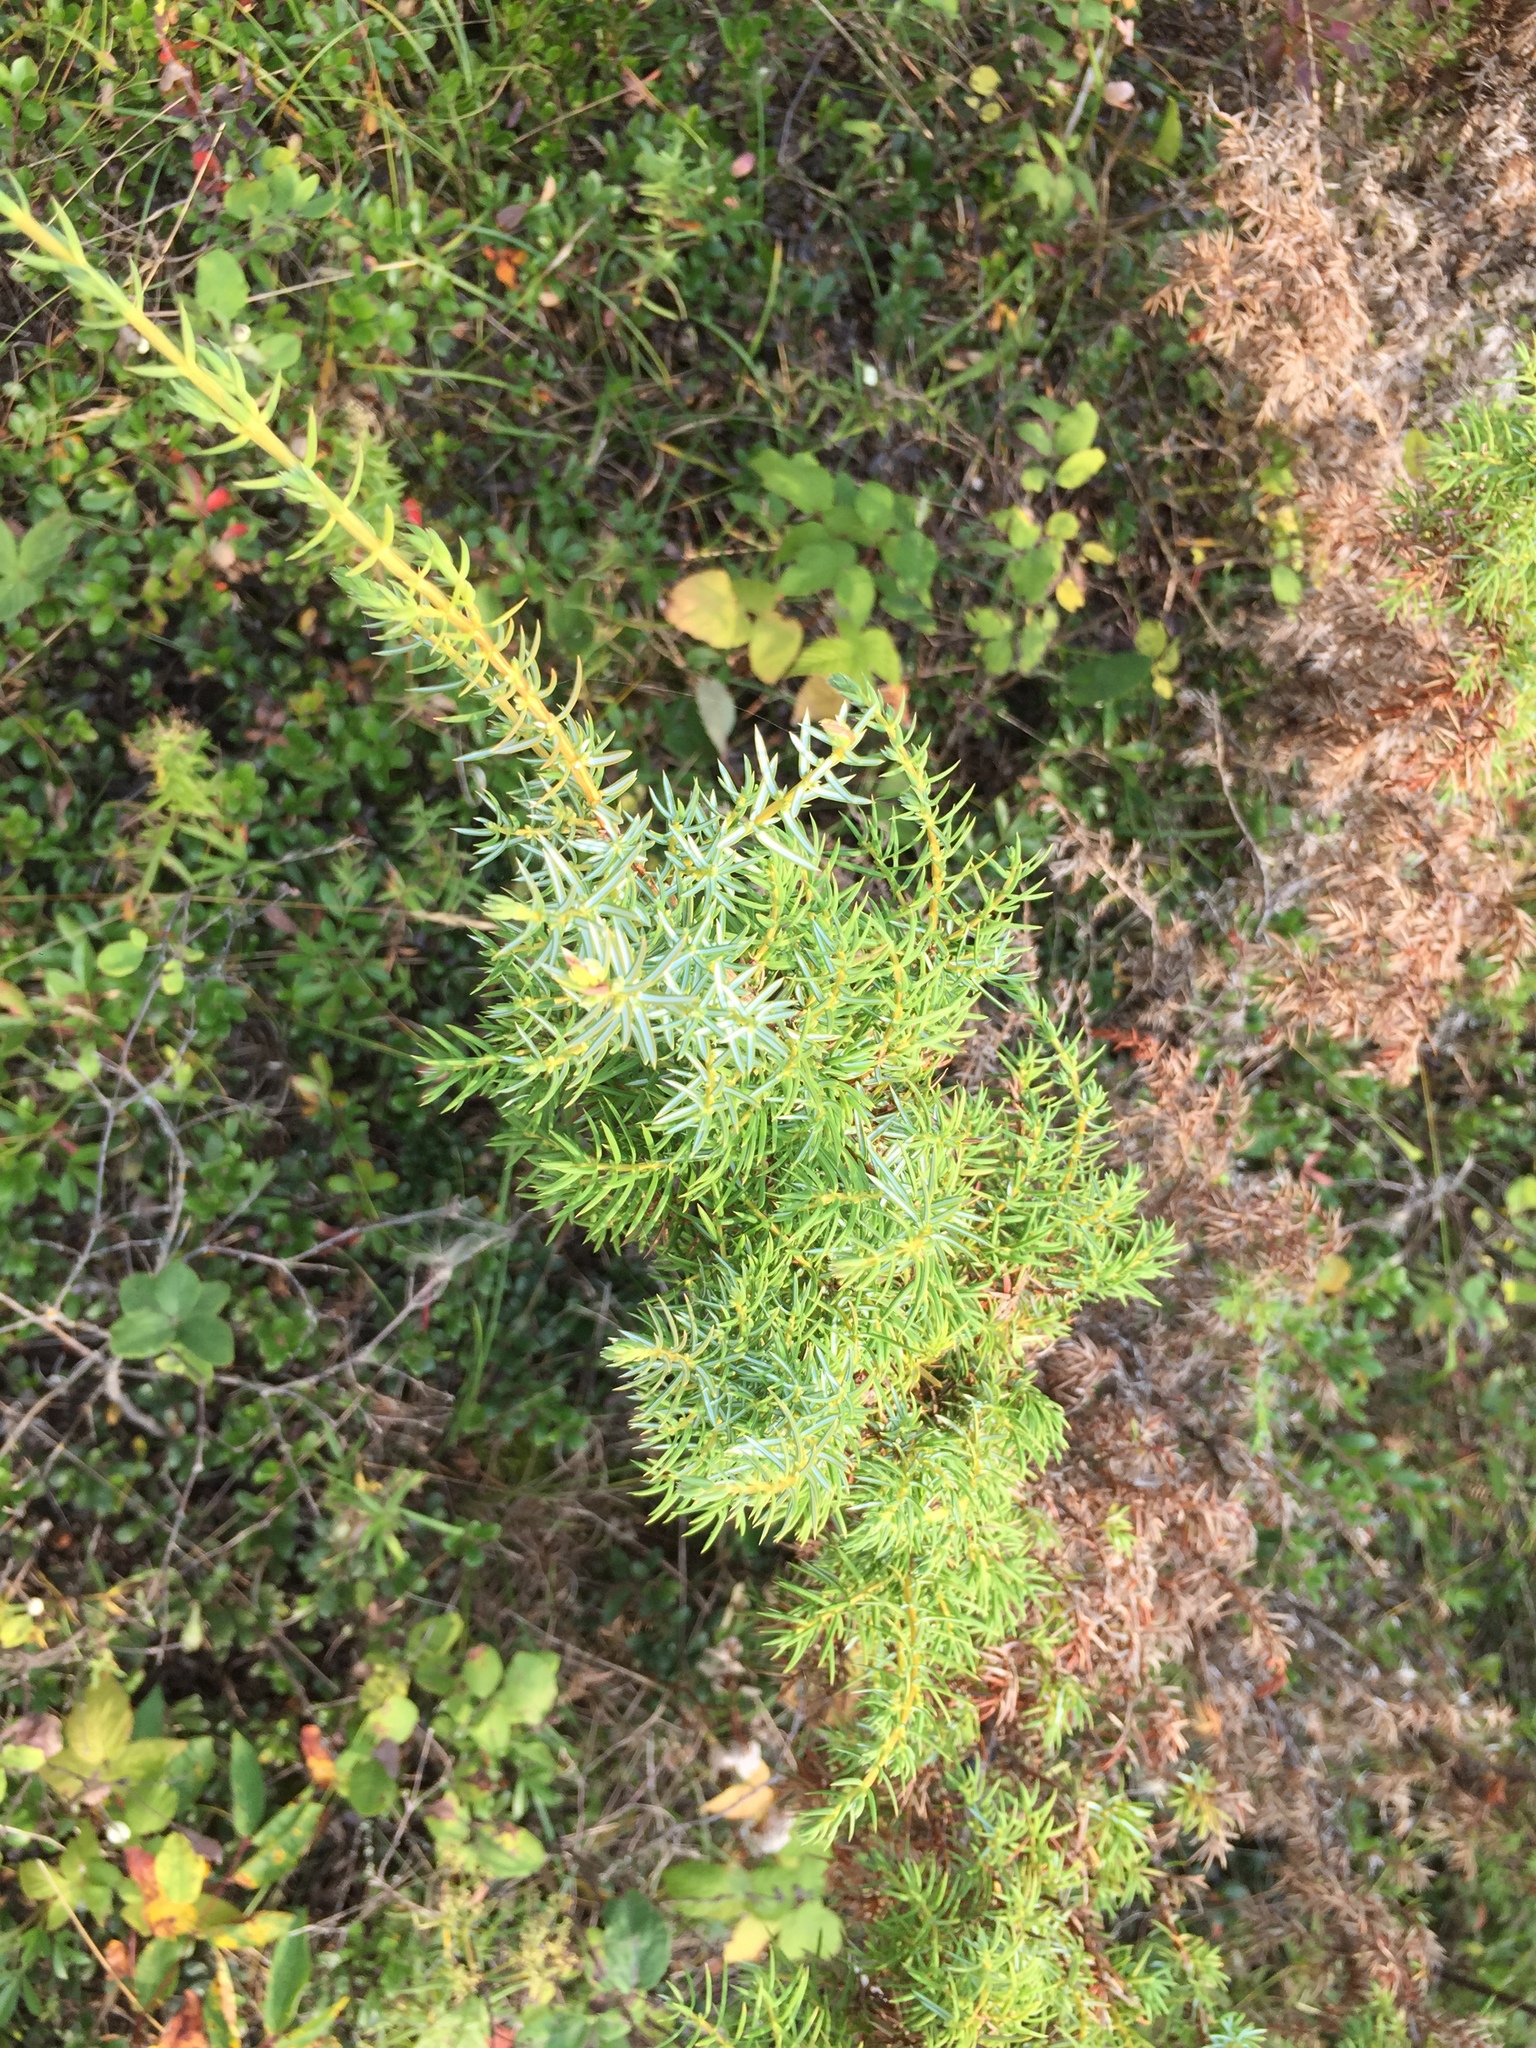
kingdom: Plantae
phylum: Tracheophyta
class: Pinopsida
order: Pinales
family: Cupressaceae
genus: Juniperus
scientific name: Juniperus communis
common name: Common juniper
